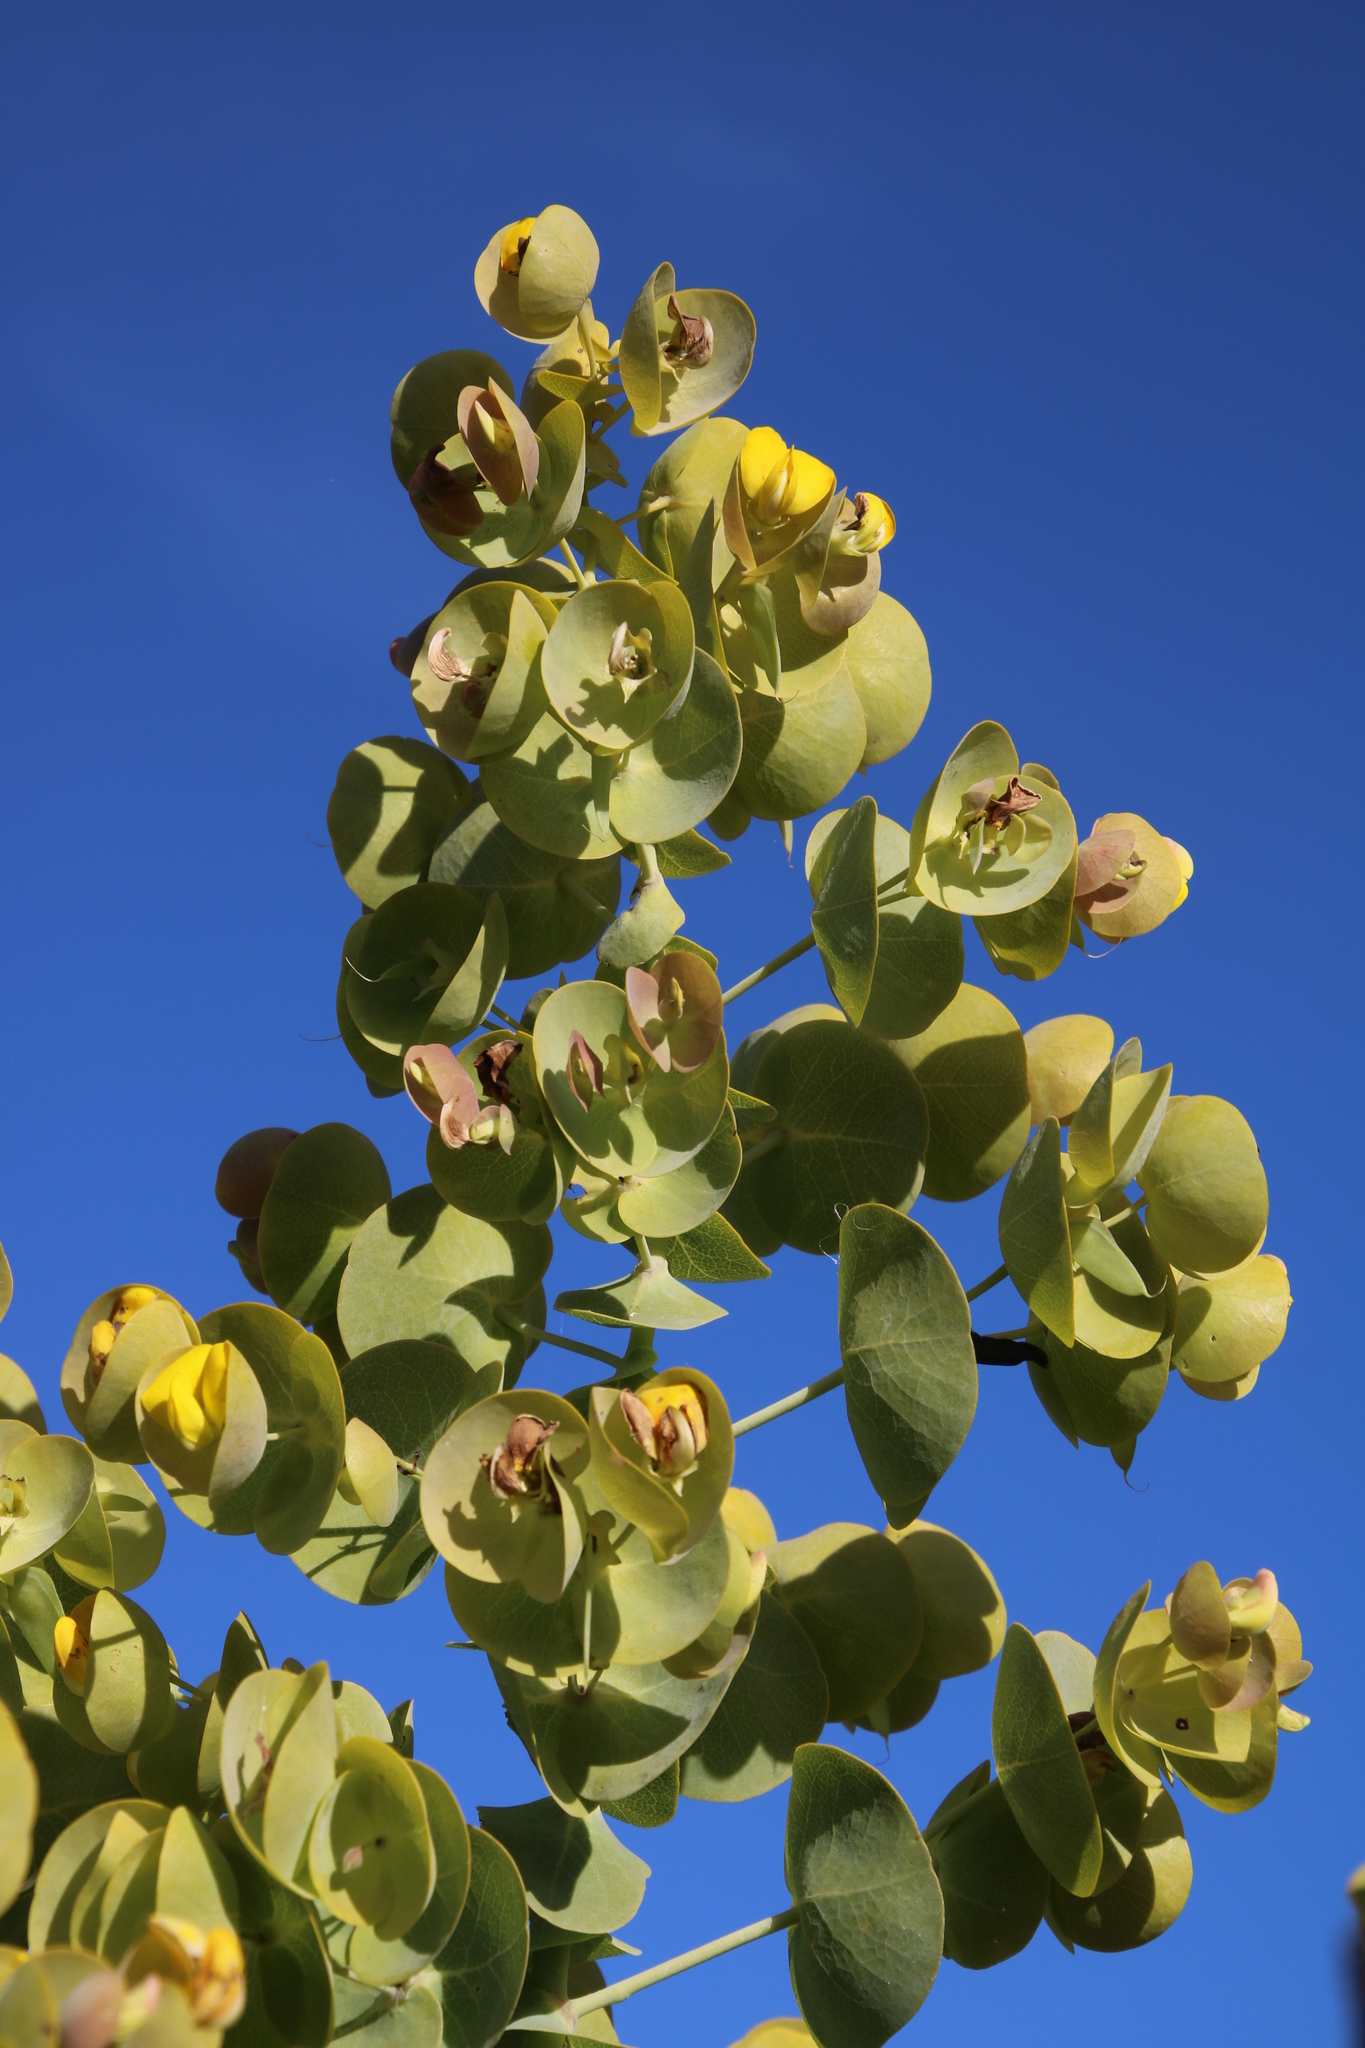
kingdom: Plantae
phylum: Tracheophyta
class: Magnoliopsida
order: Fabales
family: Fabaceae
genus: Rafnia
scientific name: Rafnia amplexicaulis
